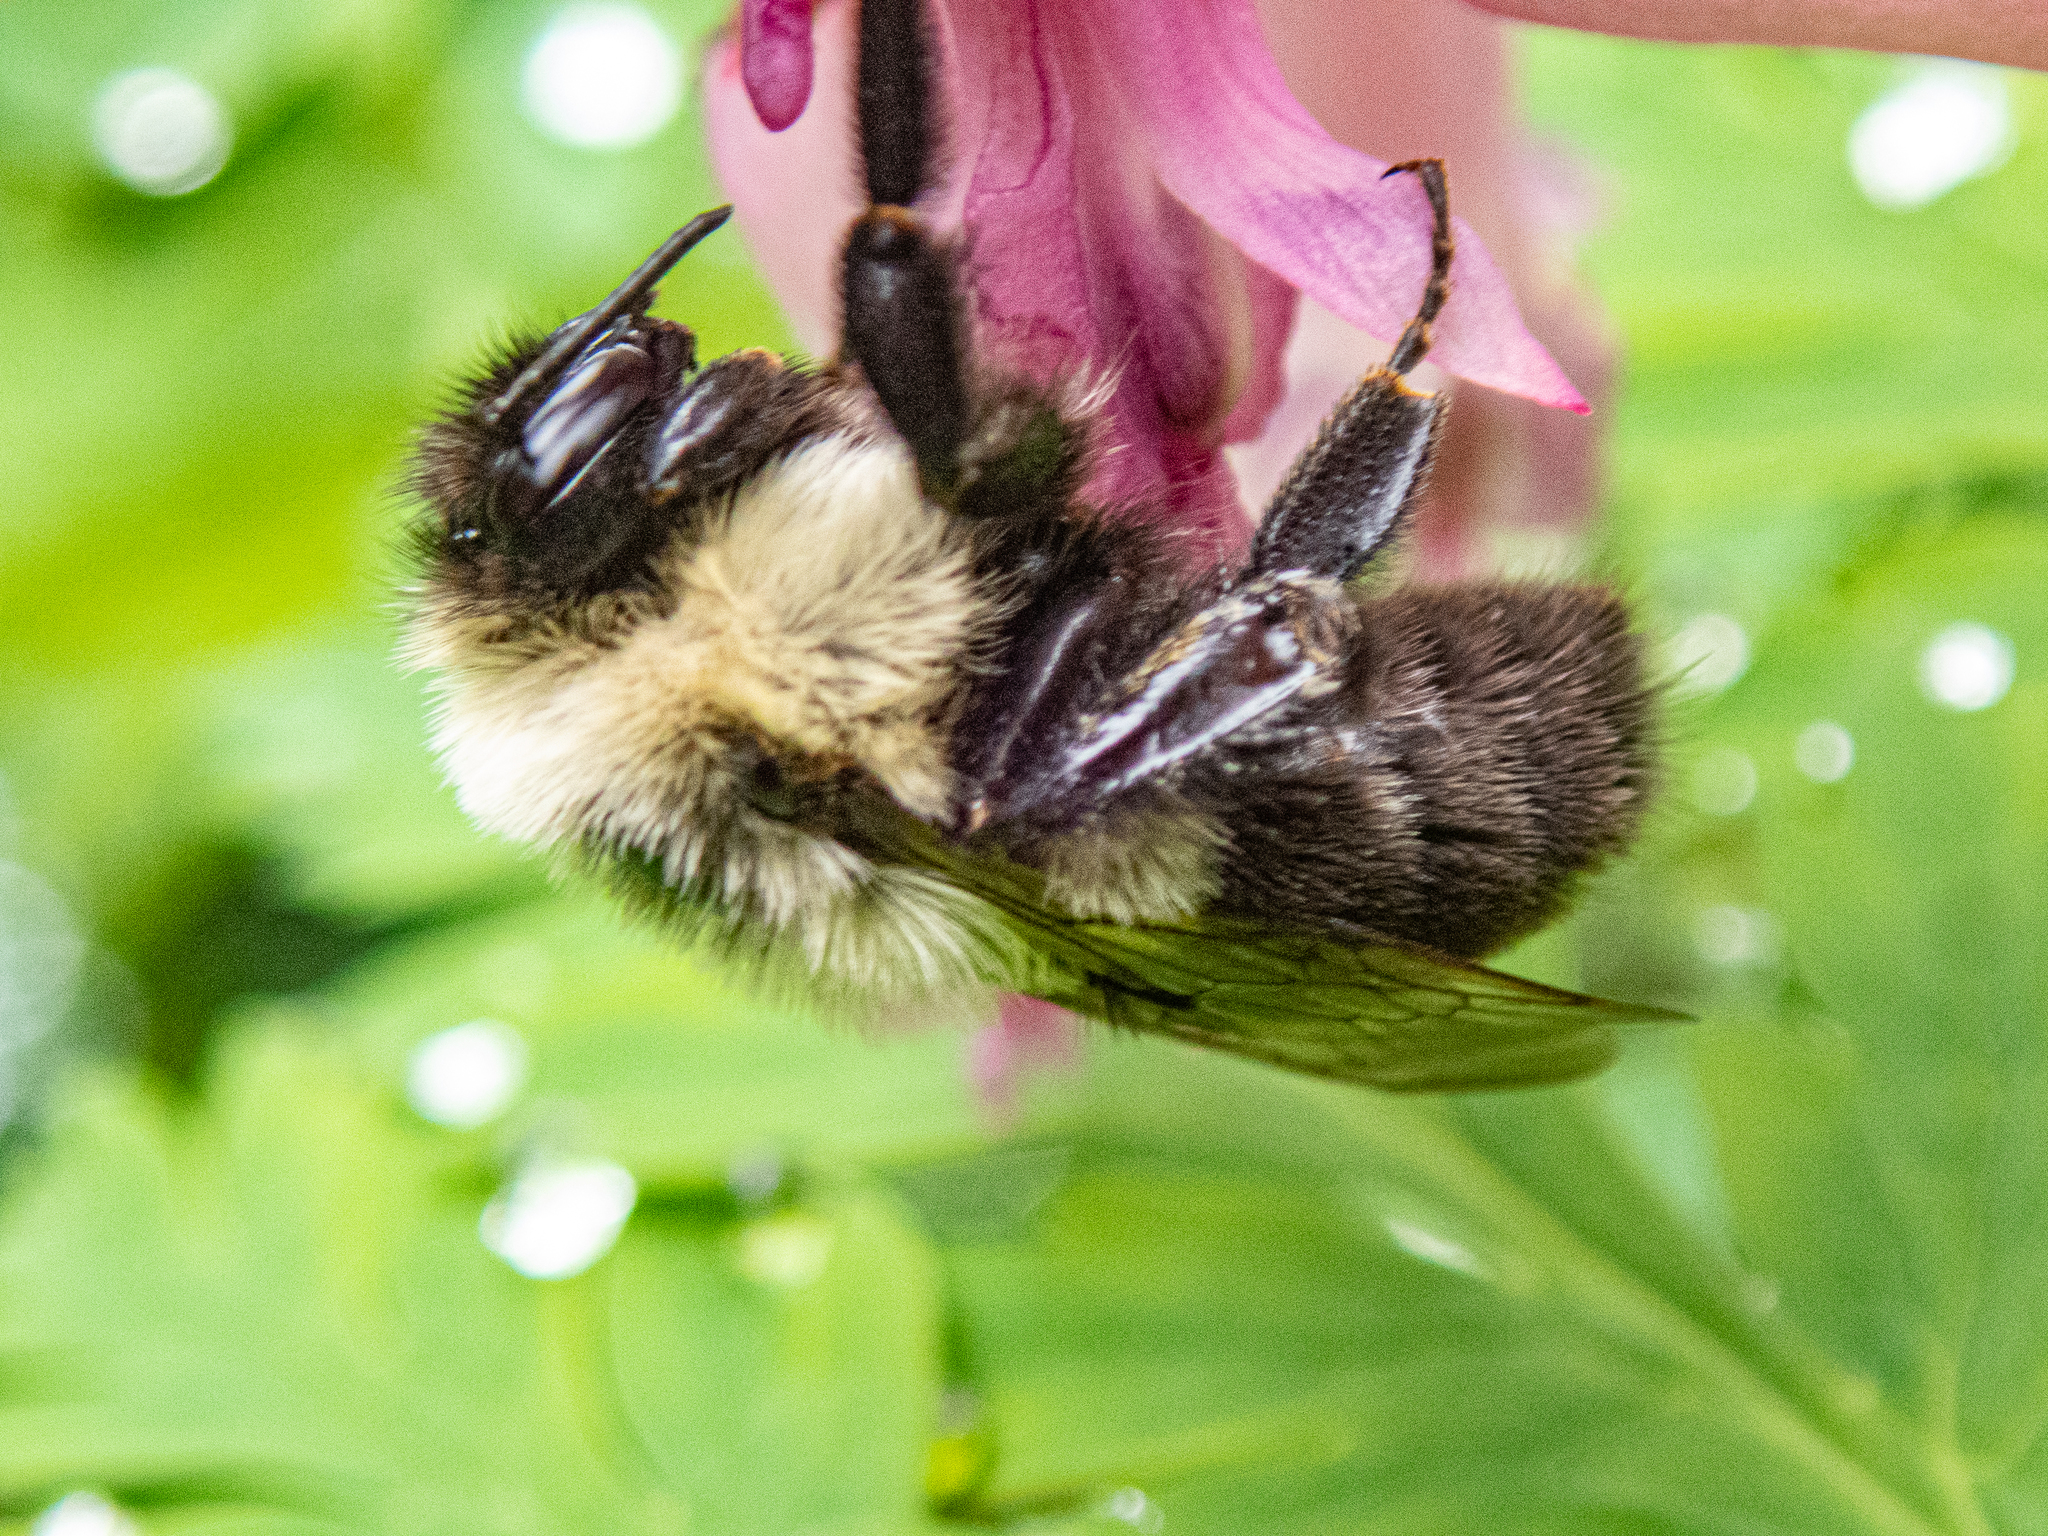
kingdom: Animalia
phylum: Arthropoda
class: Insecta
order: Hymenoptera
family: Apidae
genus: Bombus
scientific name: Bombus impatiens
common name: Common eastern bumble bee
